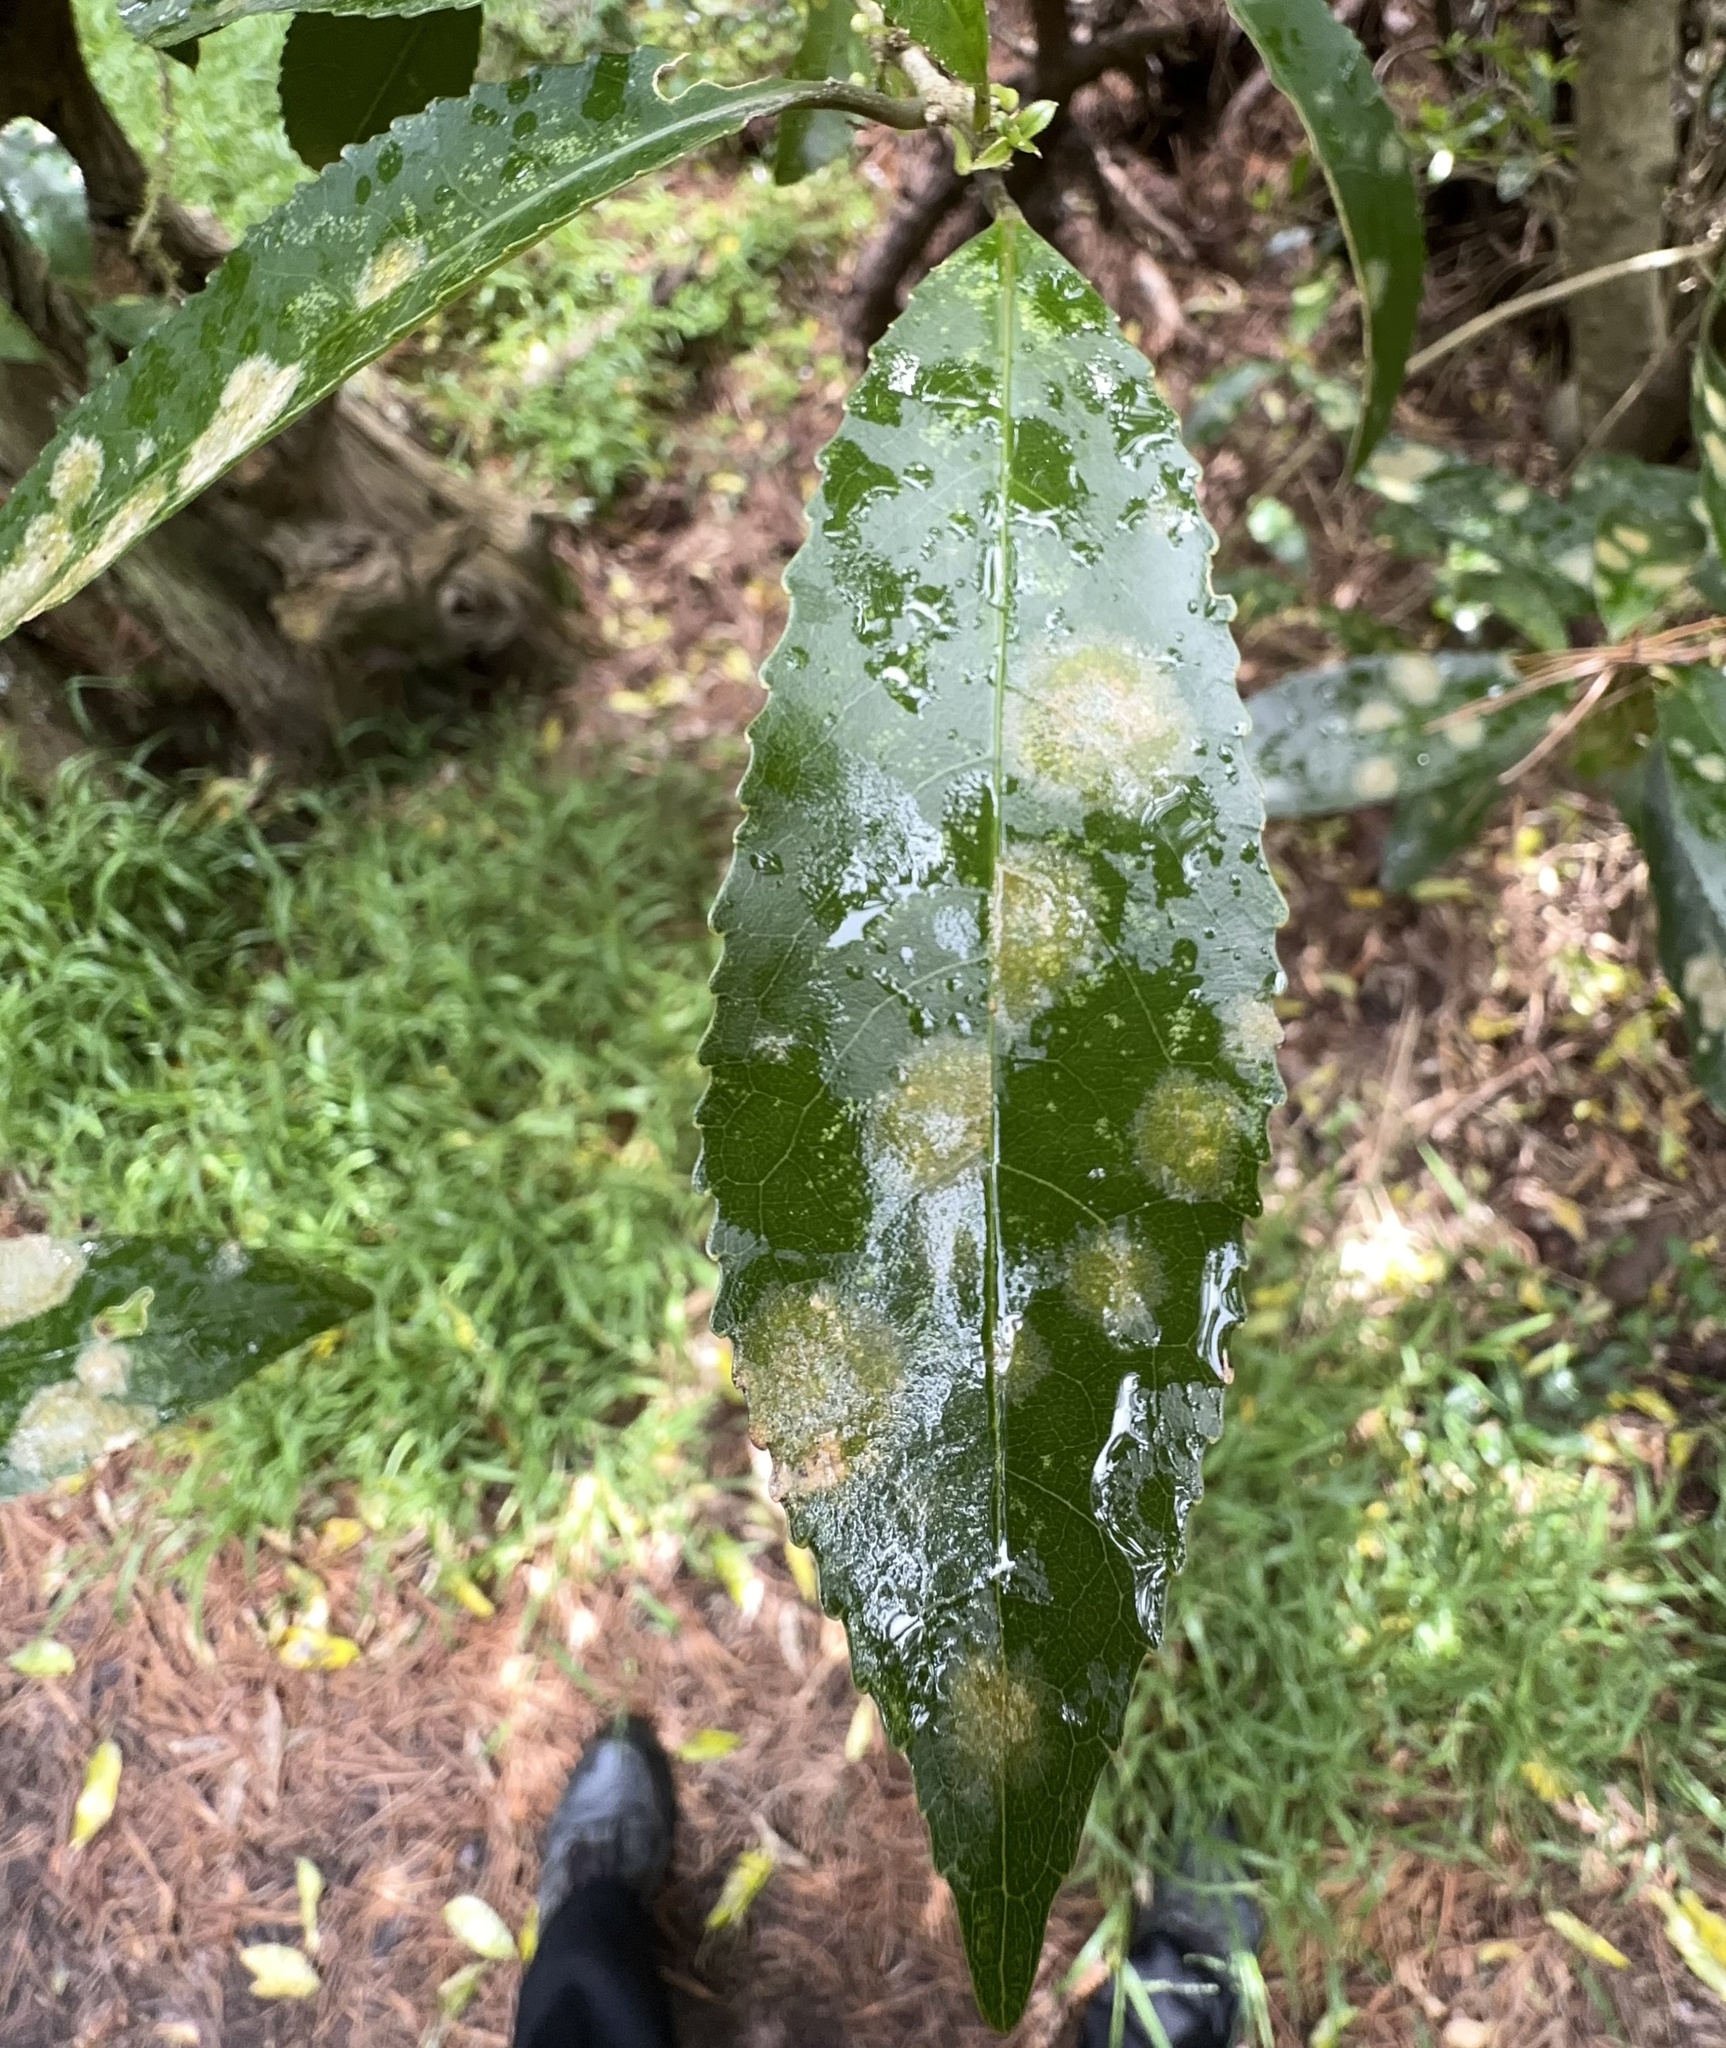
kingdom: Plantae
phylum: Chlorophyta
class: Ulvophyceae
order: Trentepohliales
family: Trentepohliaceae
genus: Cephaleuros
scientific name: Cephaleuros
